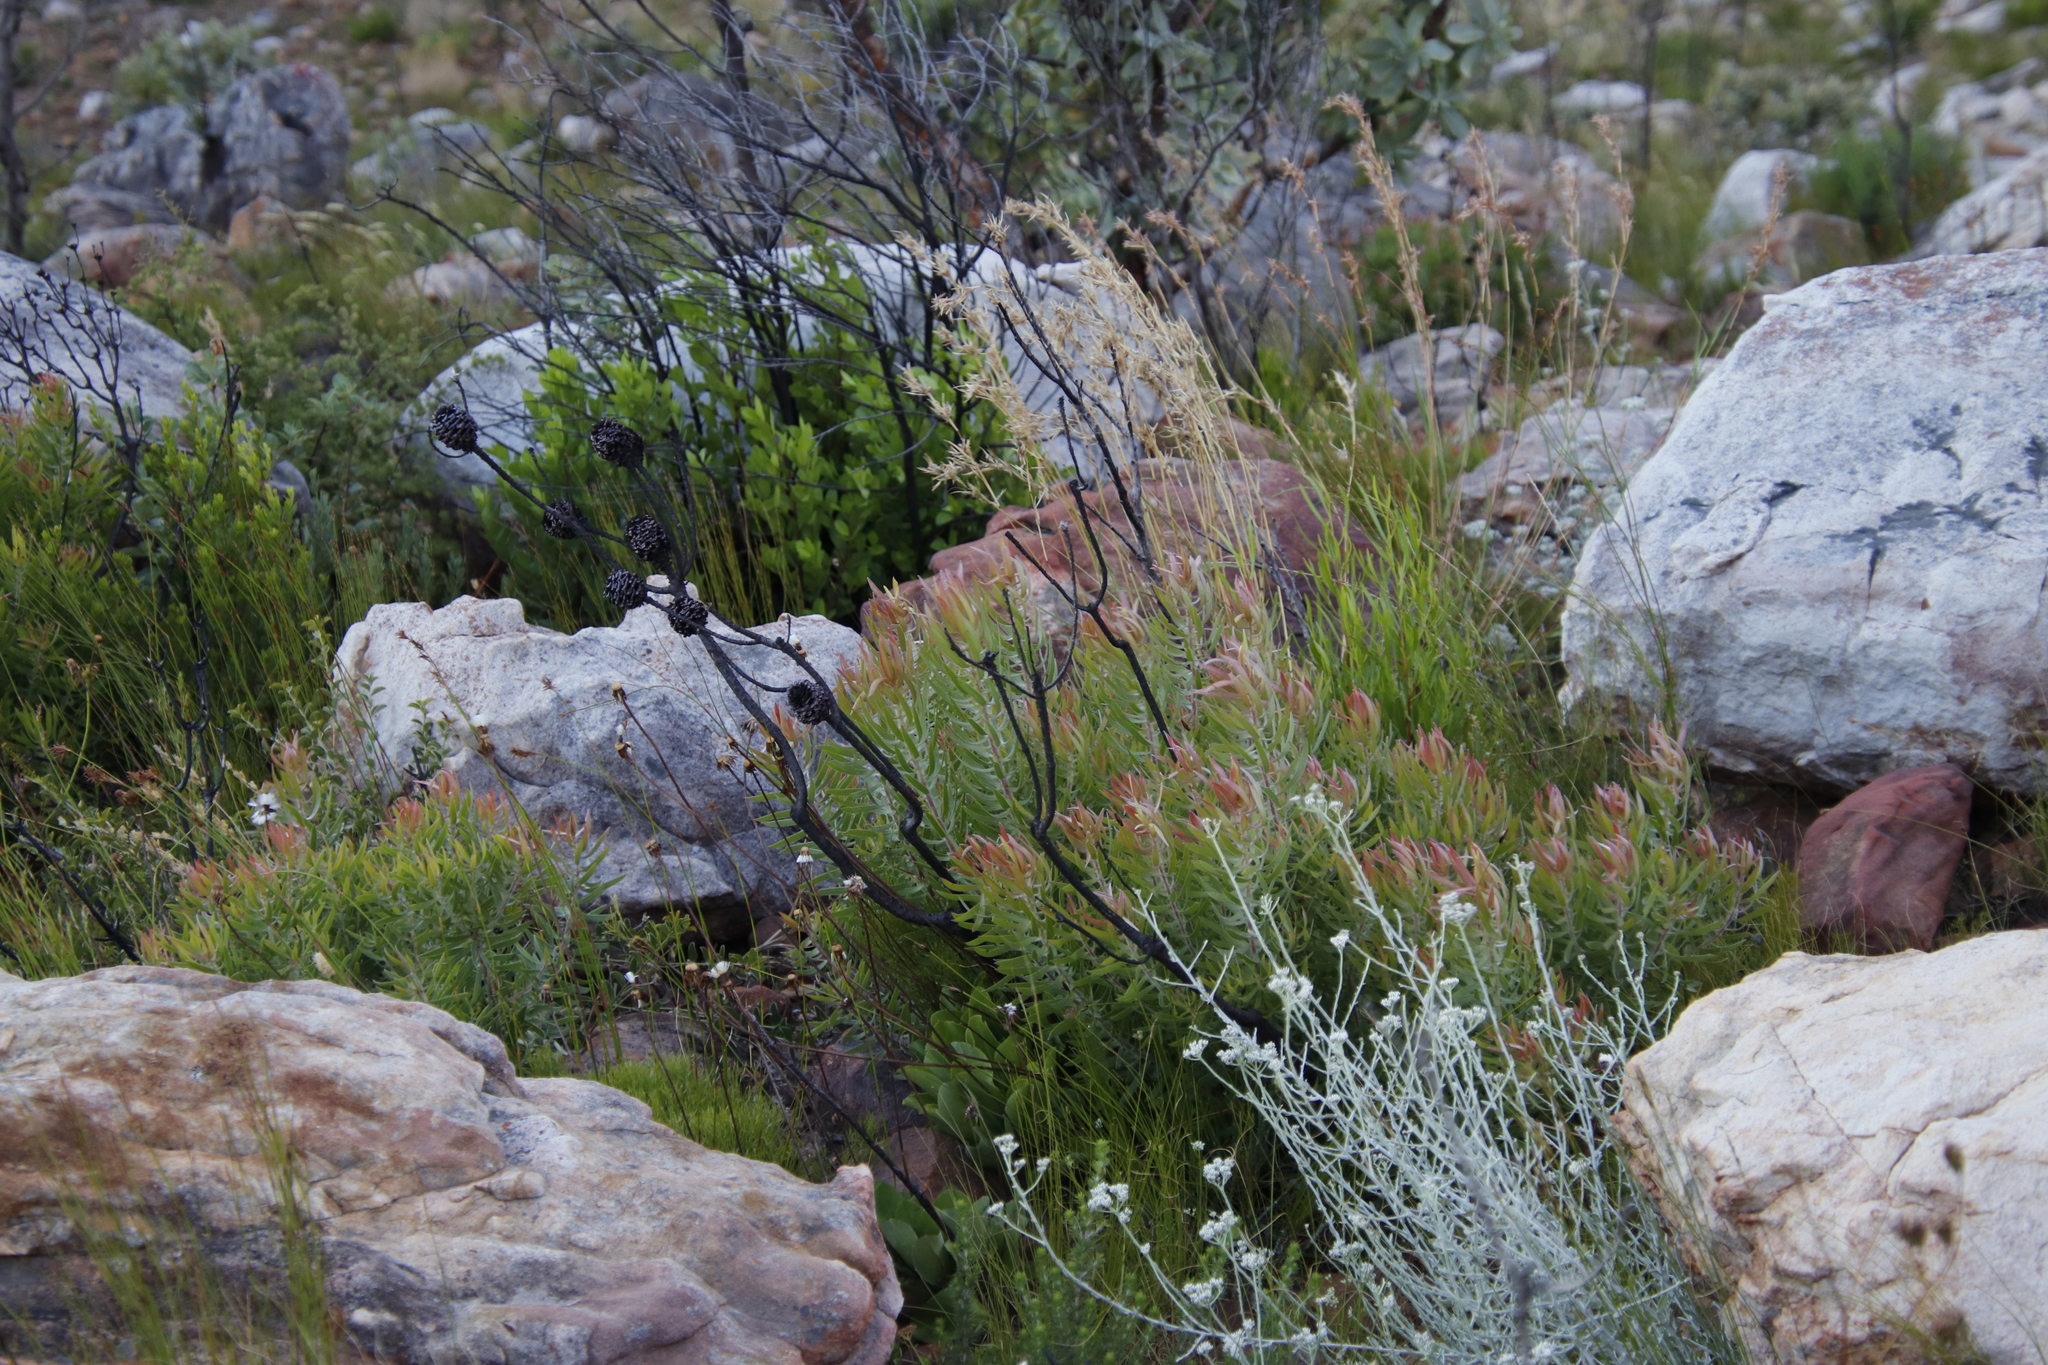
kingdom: Plantae
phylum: Tracheophyta
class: Magnoliopsida
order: Proteales
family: Proteaceae
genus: Leucadendron
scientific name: Leucadendron spissifolium
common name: Spear-leaf conebush
